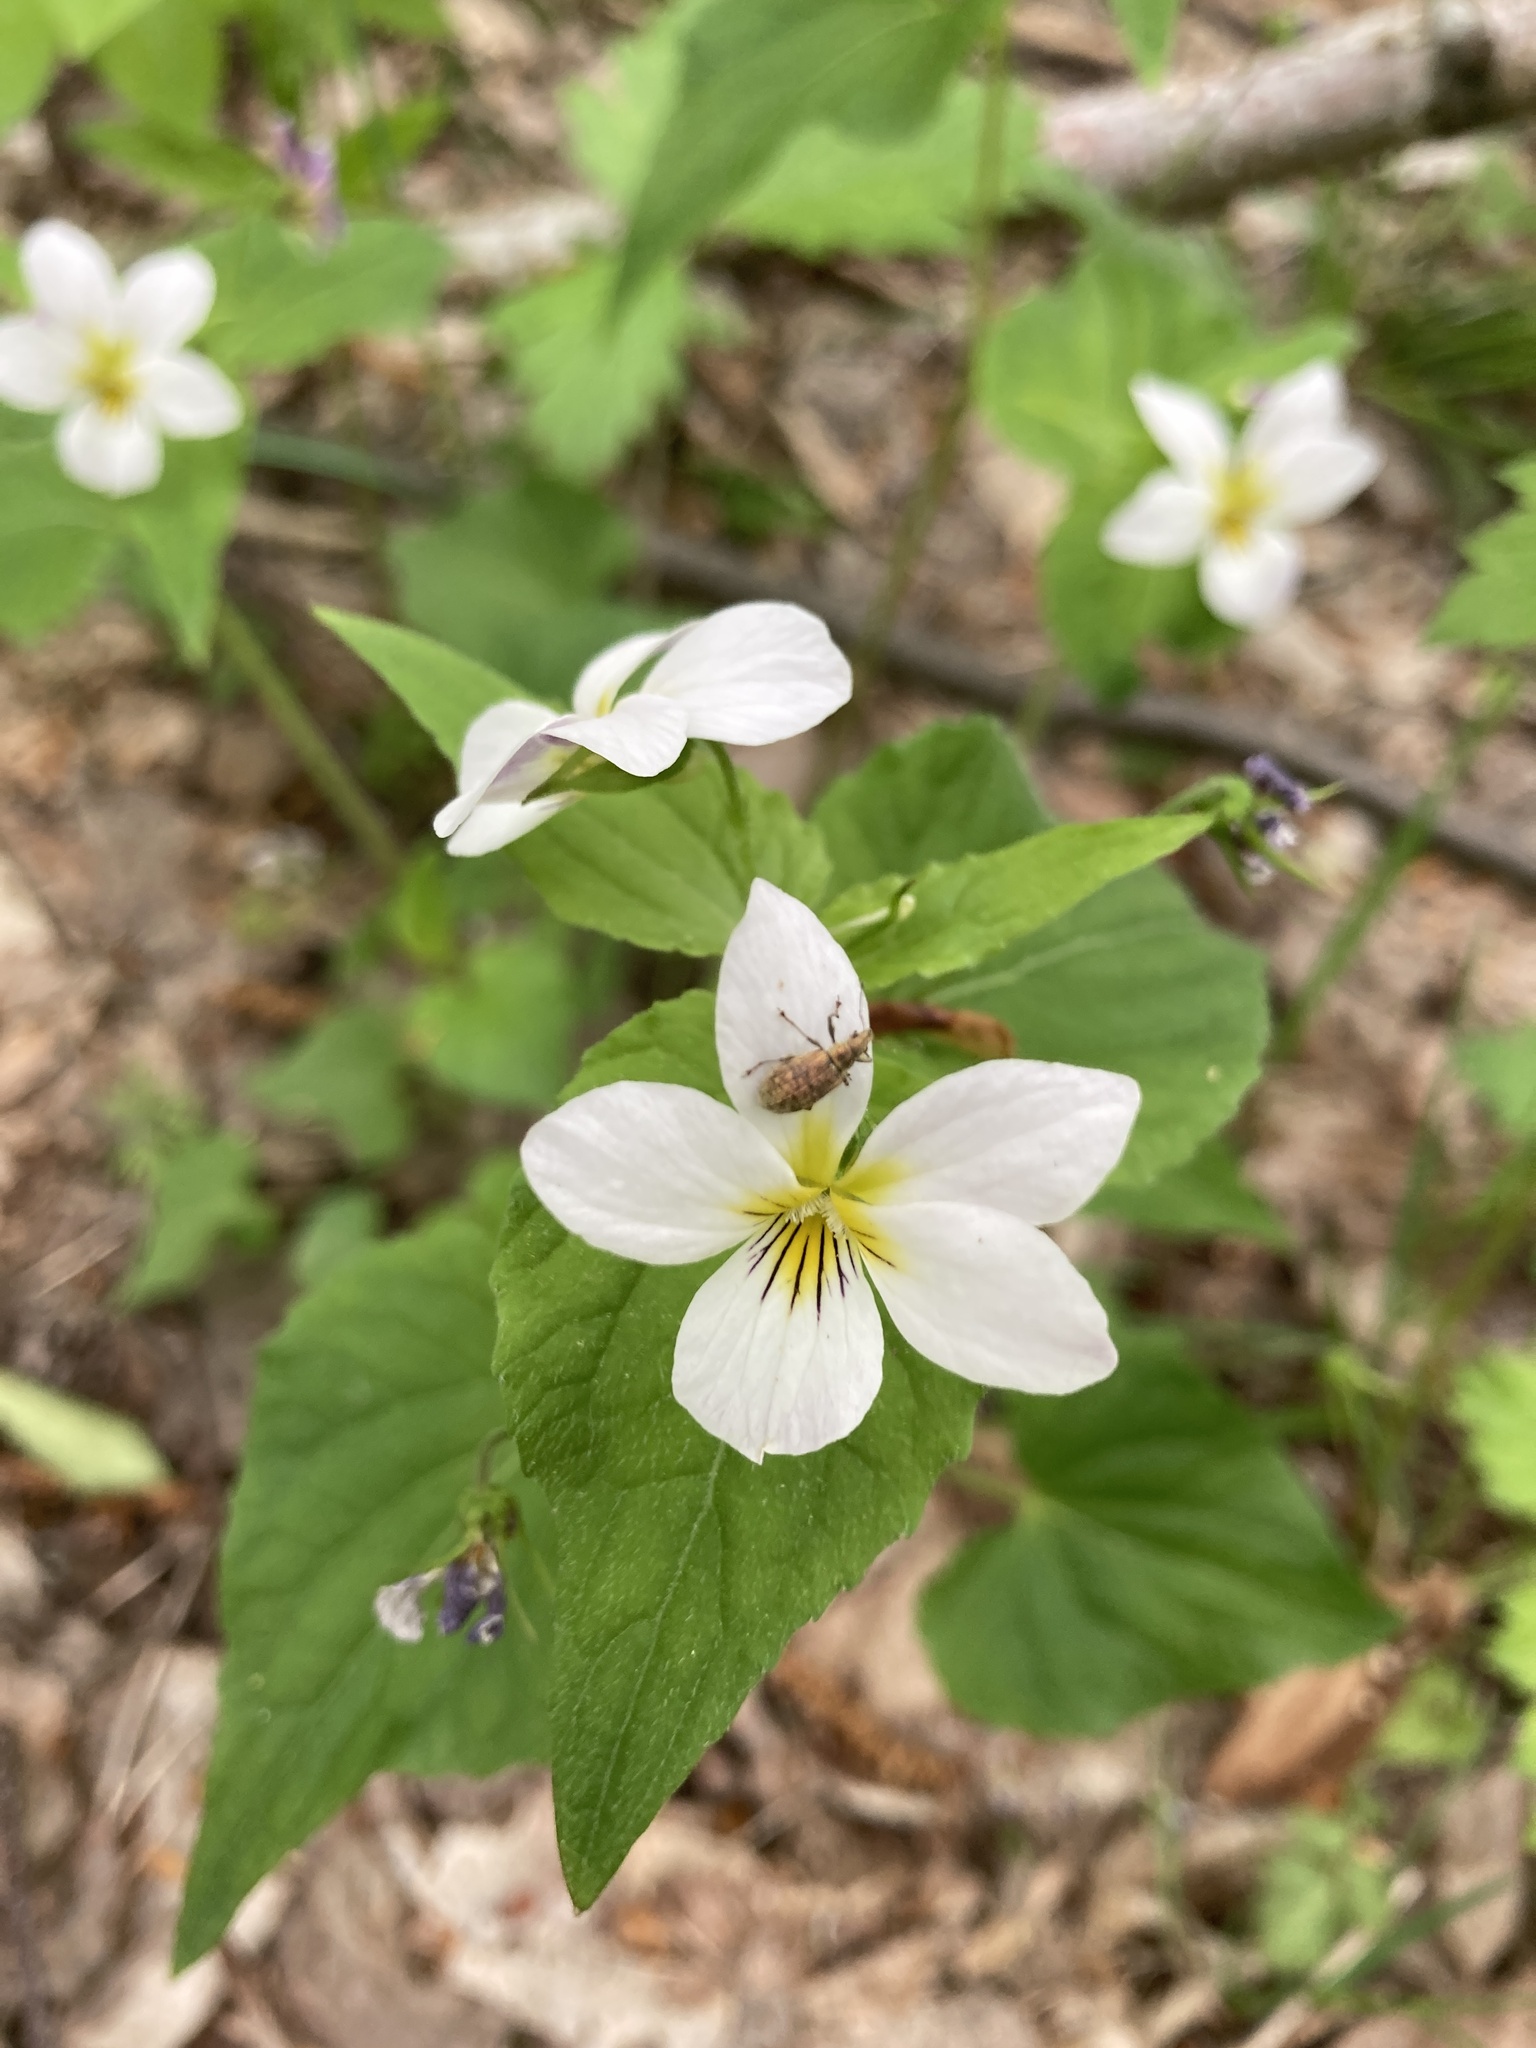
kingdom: Plantae
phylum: Tracheophyta
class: Magnoliopsida
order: Malpighiales
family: Violaceae
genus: Viola
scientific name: Viola canadensis
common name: Canada violet
